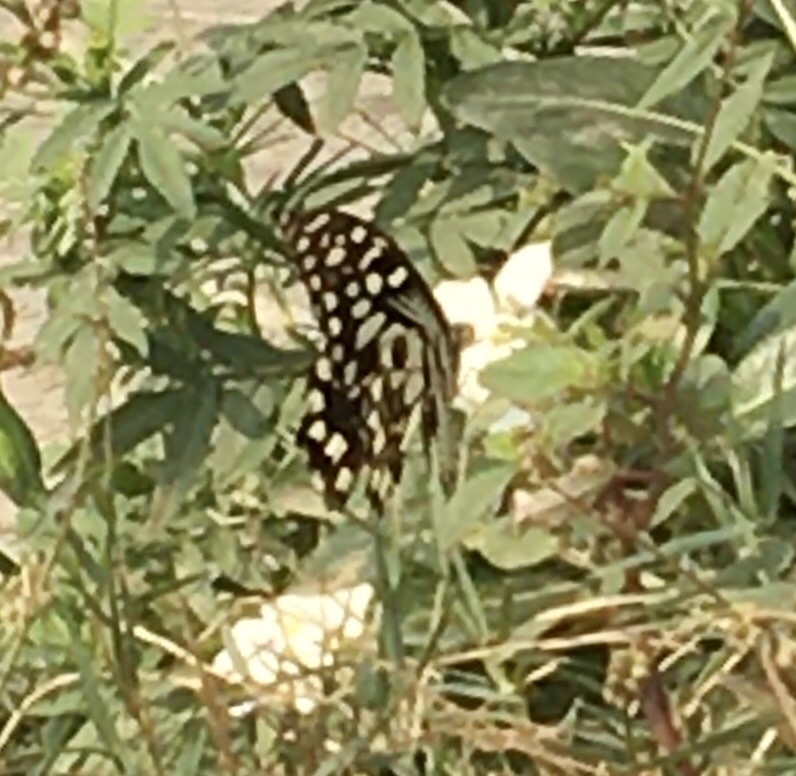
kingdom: Animalia
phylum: Arthropoda
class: Insecta
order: Lepidoptera
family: Papilionidae
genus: Papilio
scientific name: Papilio demoleus
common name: Lime butterfly
